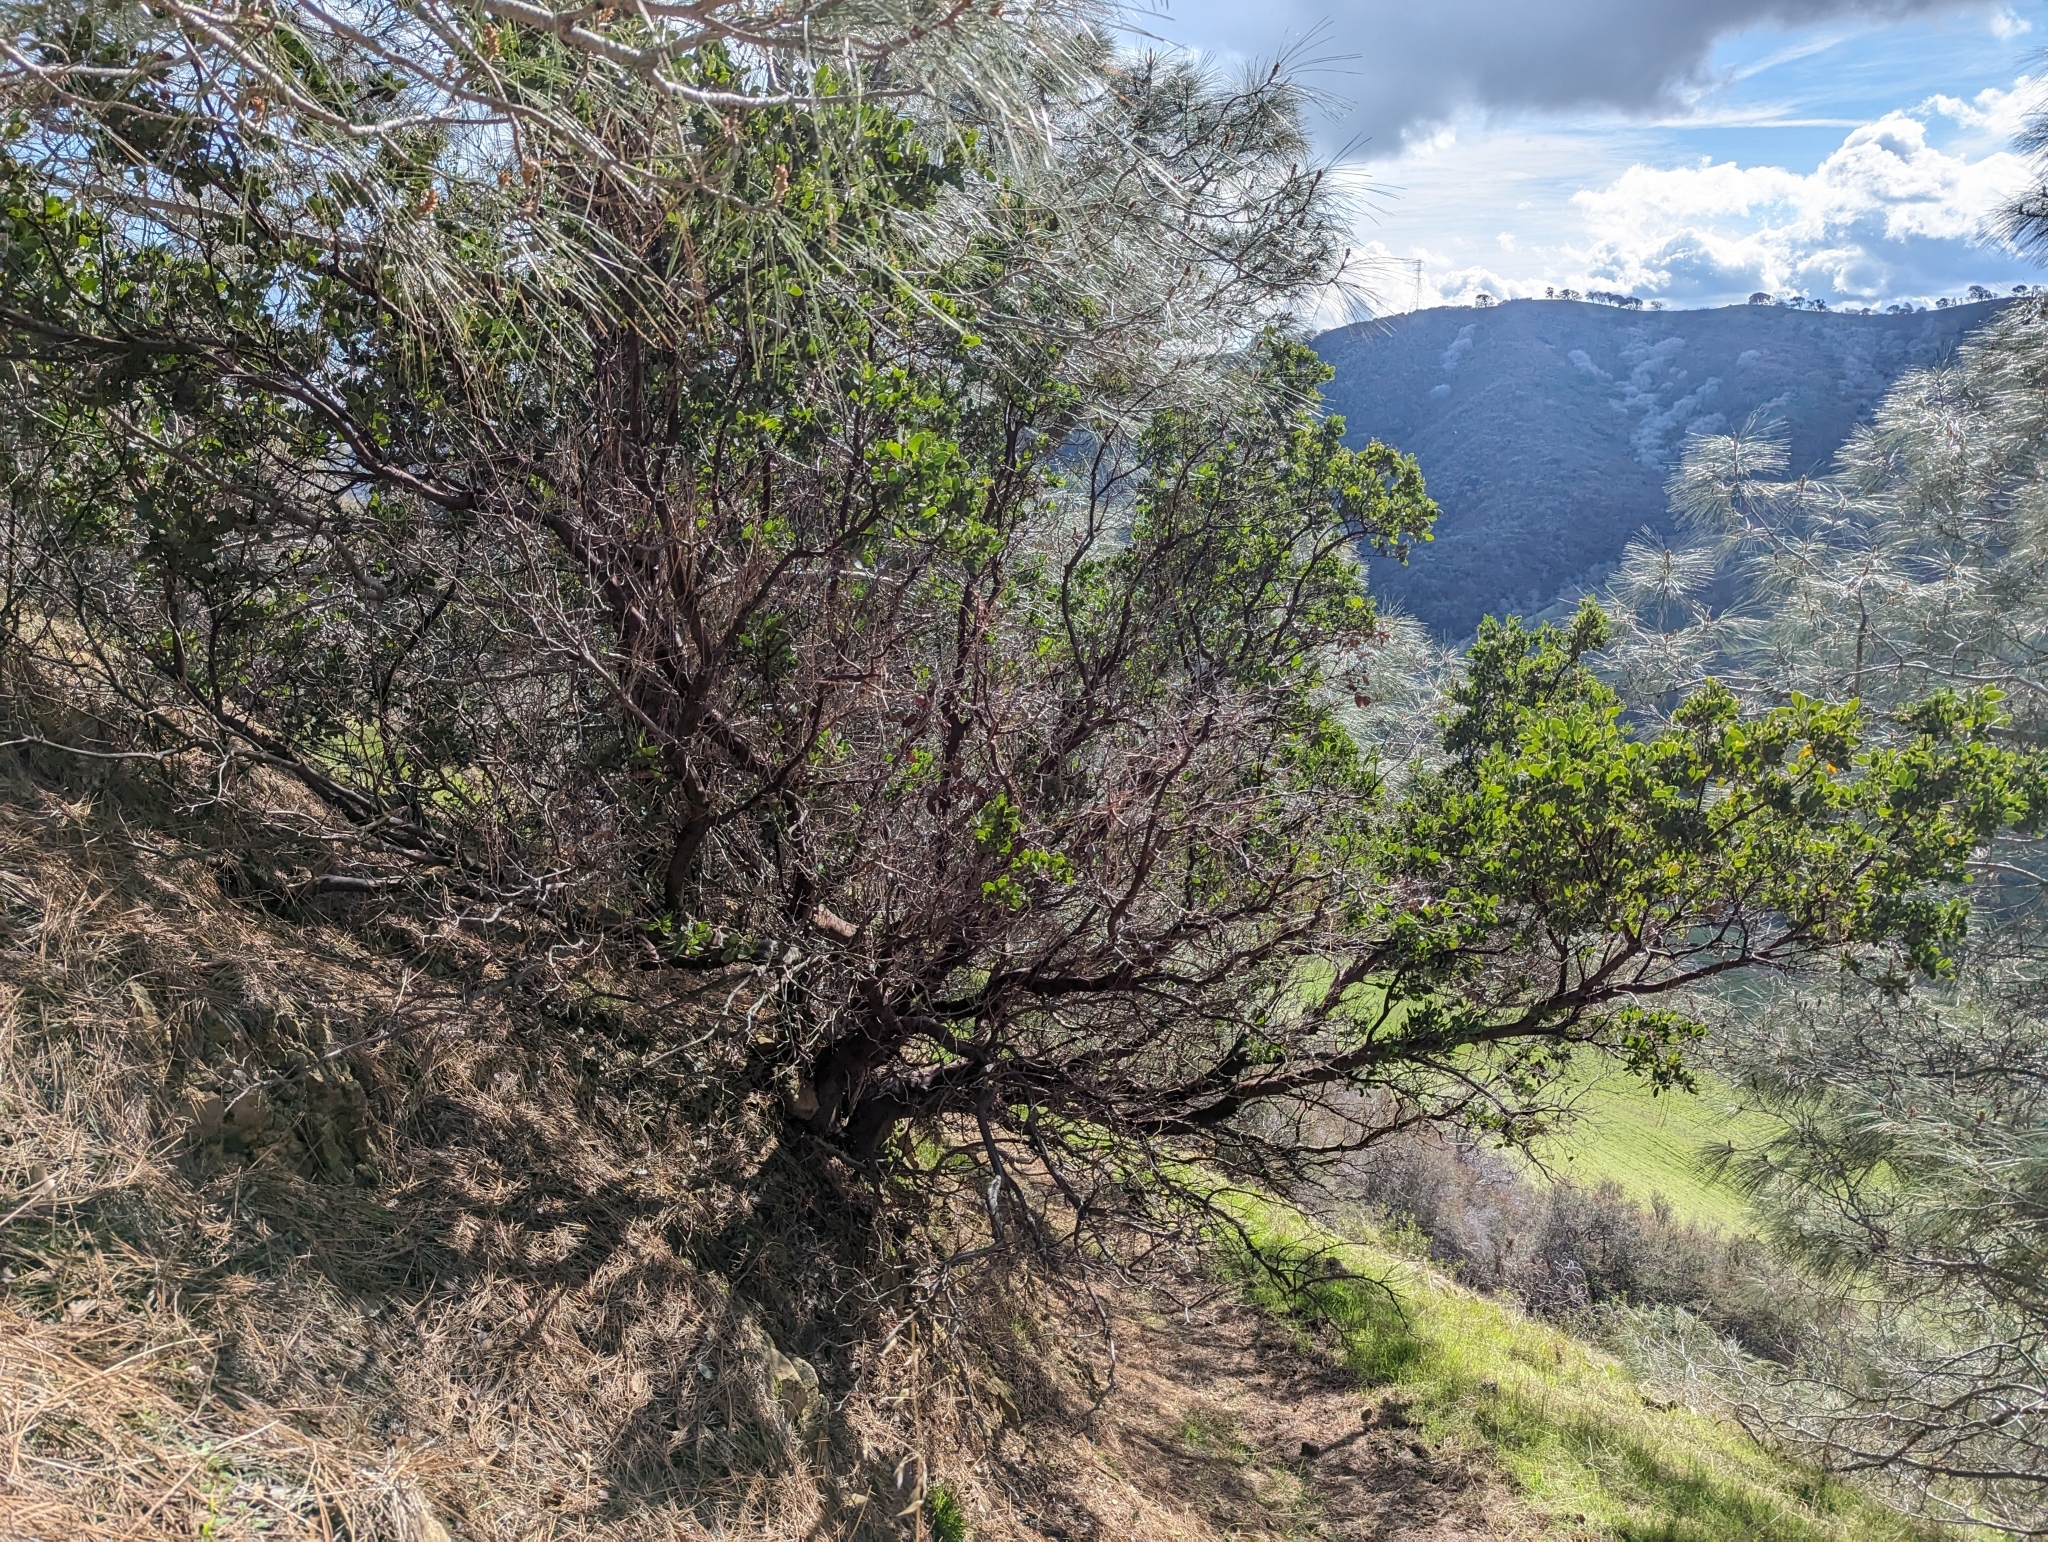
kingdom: Plantae
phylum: Tracheophyta
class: Magnoliopsida
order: Ericales
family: Ericaceae
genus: Arctostaphylos
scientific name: Arctostaphylos manzanita
